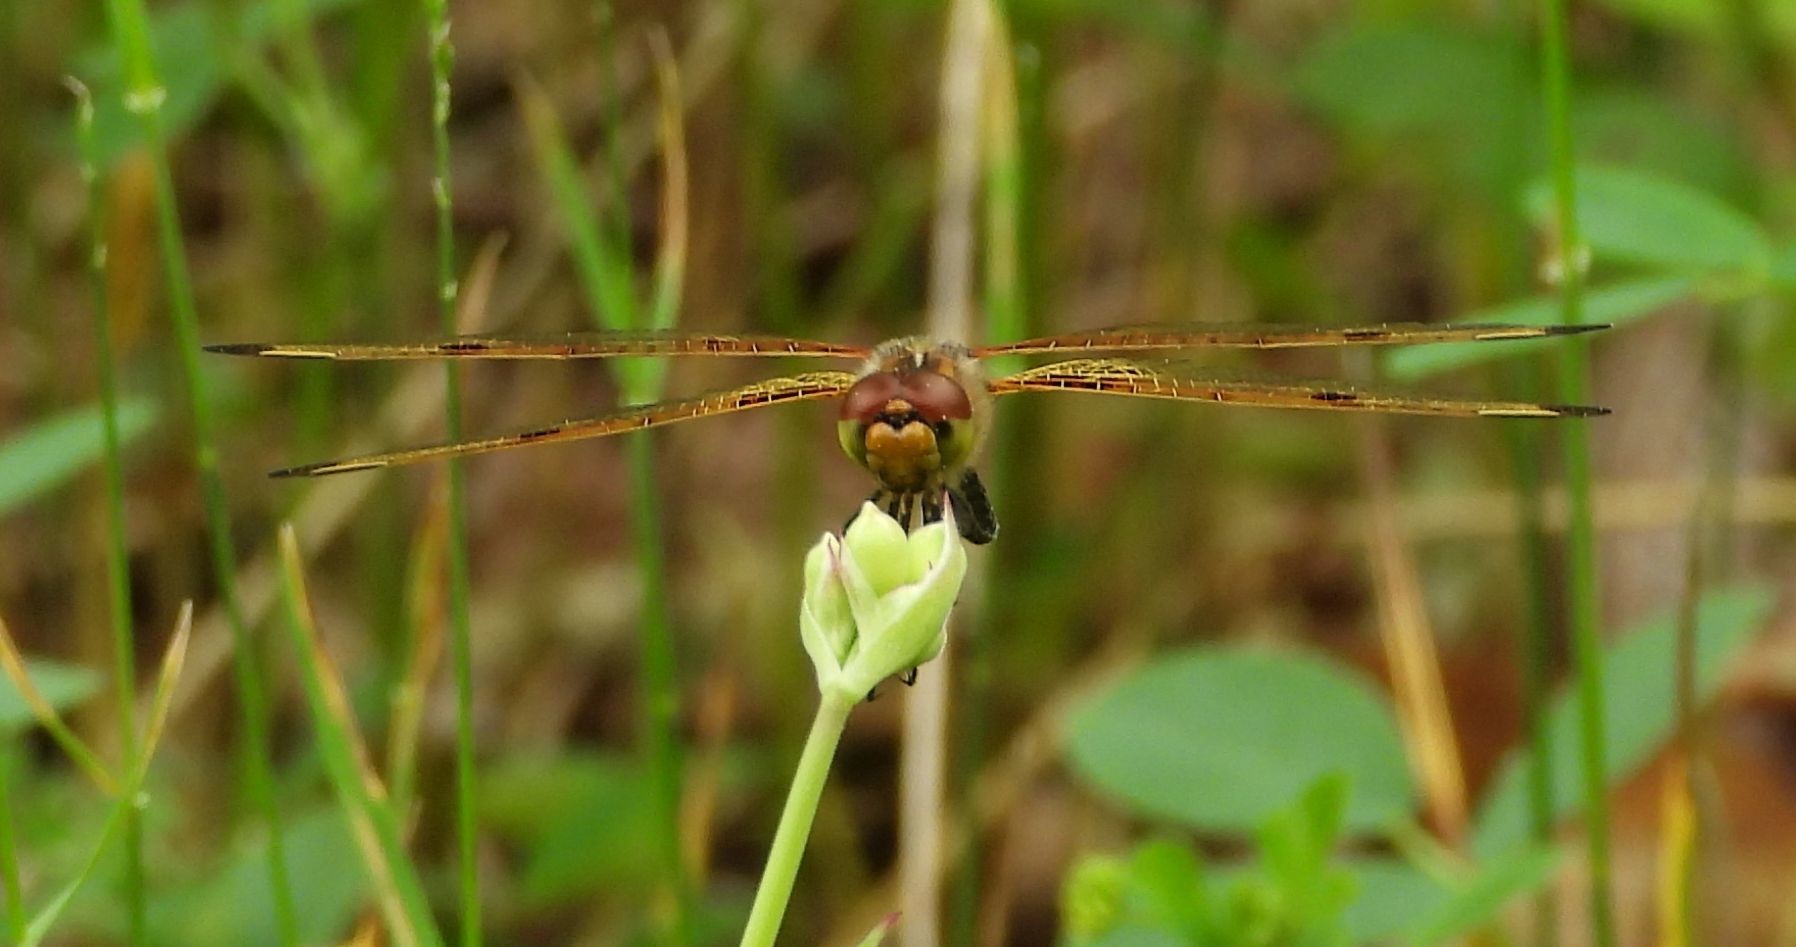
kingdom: Animalia
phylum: Arthropoda
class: Insecta
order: Odonata
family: Libellulidae
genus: Celithemis
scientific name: Celithemis elisa
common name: Calico pennant
